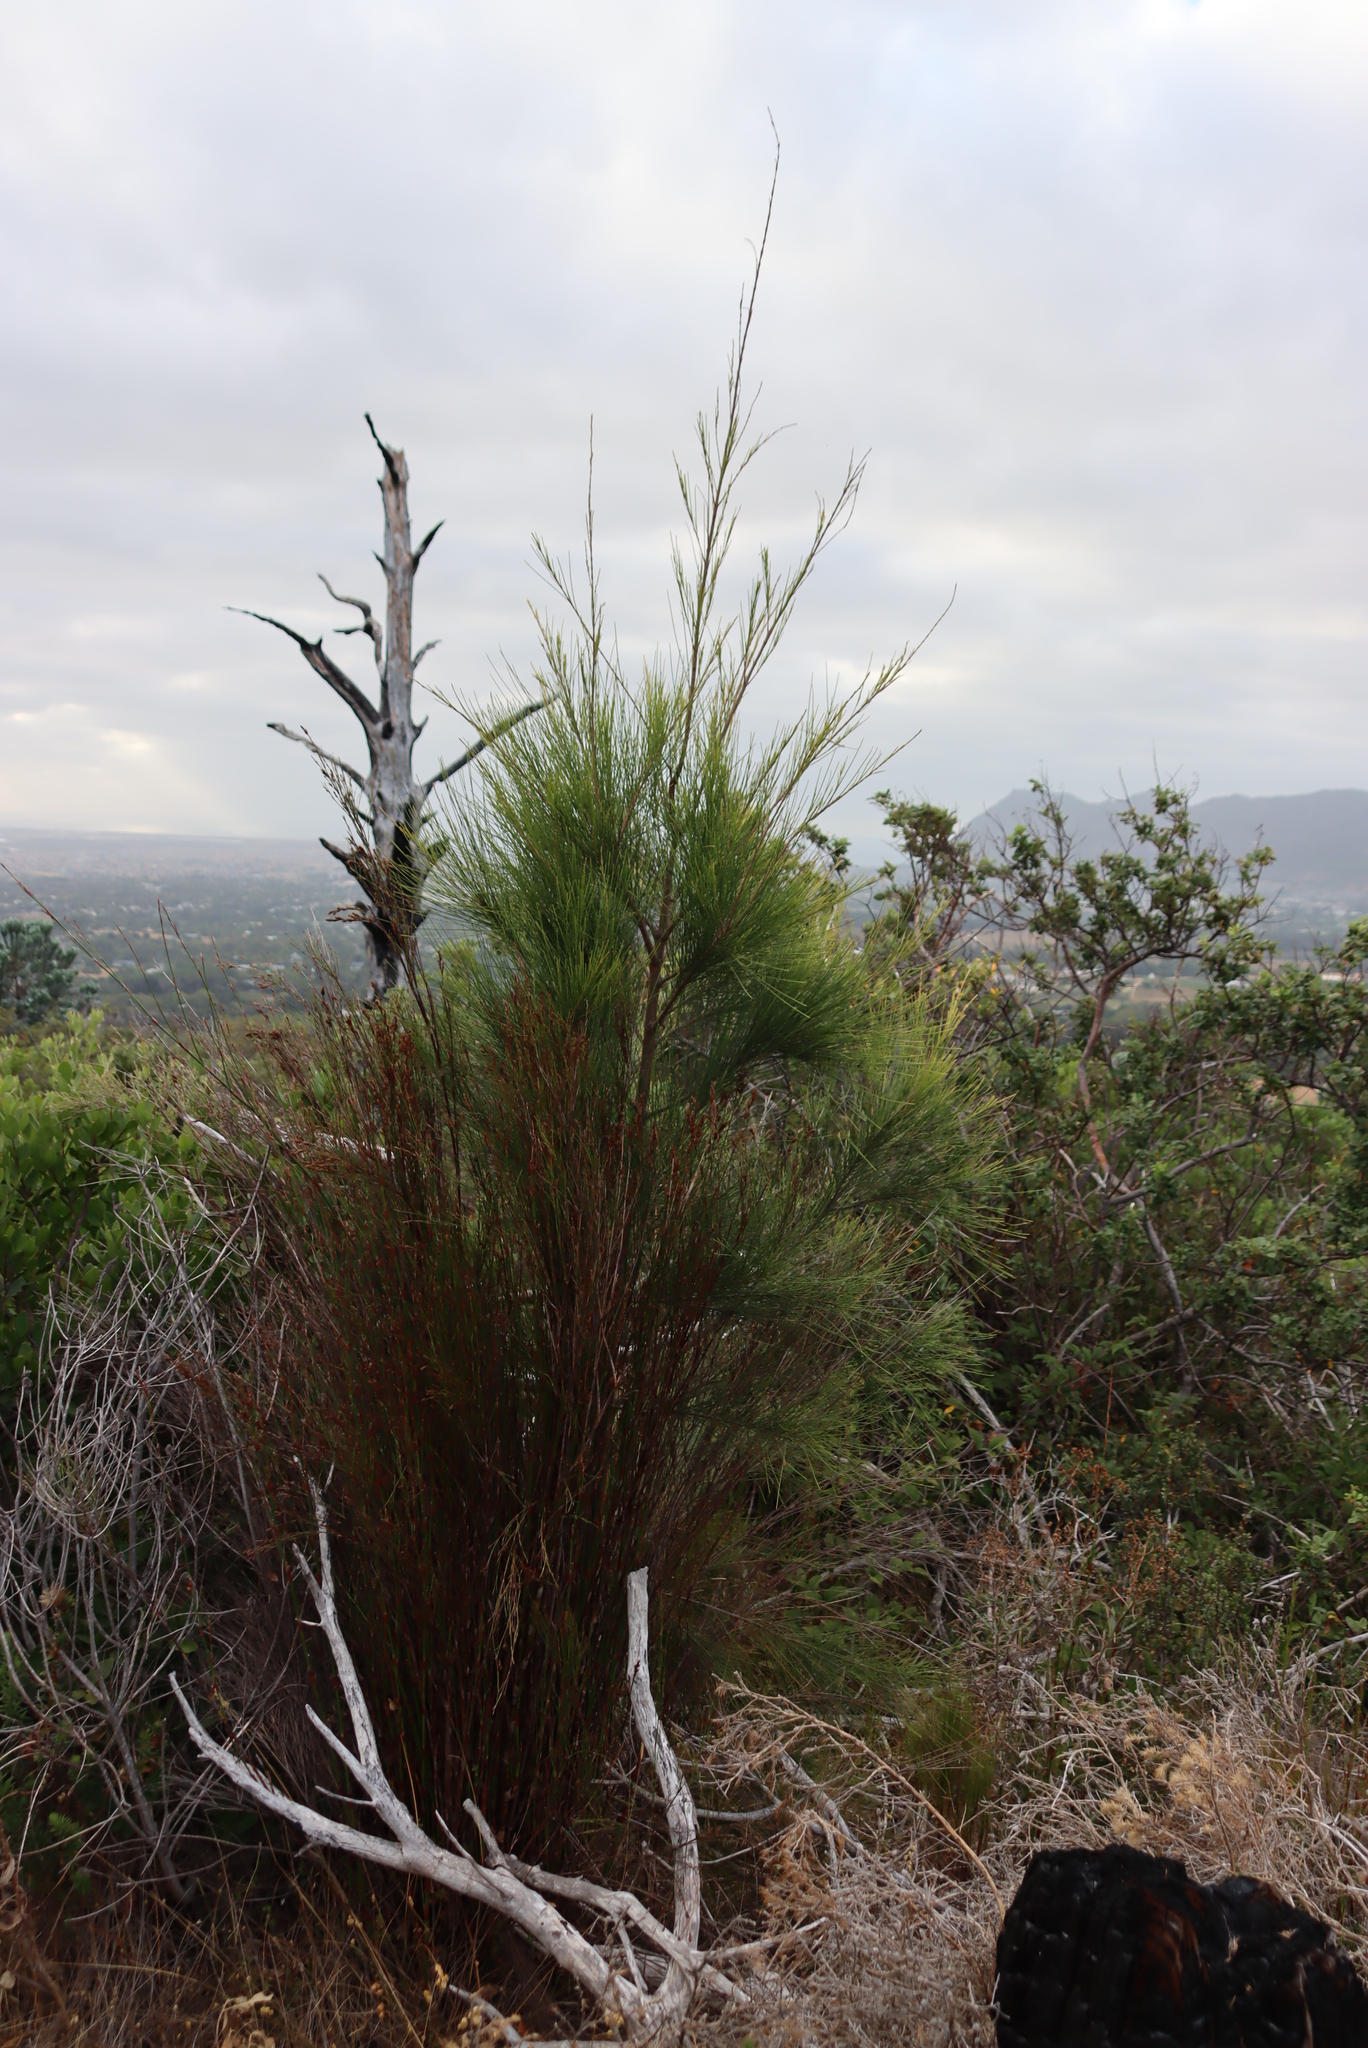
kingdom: Plantae
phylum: Tracheophyta
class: Magnoliopsida
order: Fagales
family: Casuarinaceae
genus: Casuarina
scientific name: Casuarina cunninghamiana
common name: River sheoak
